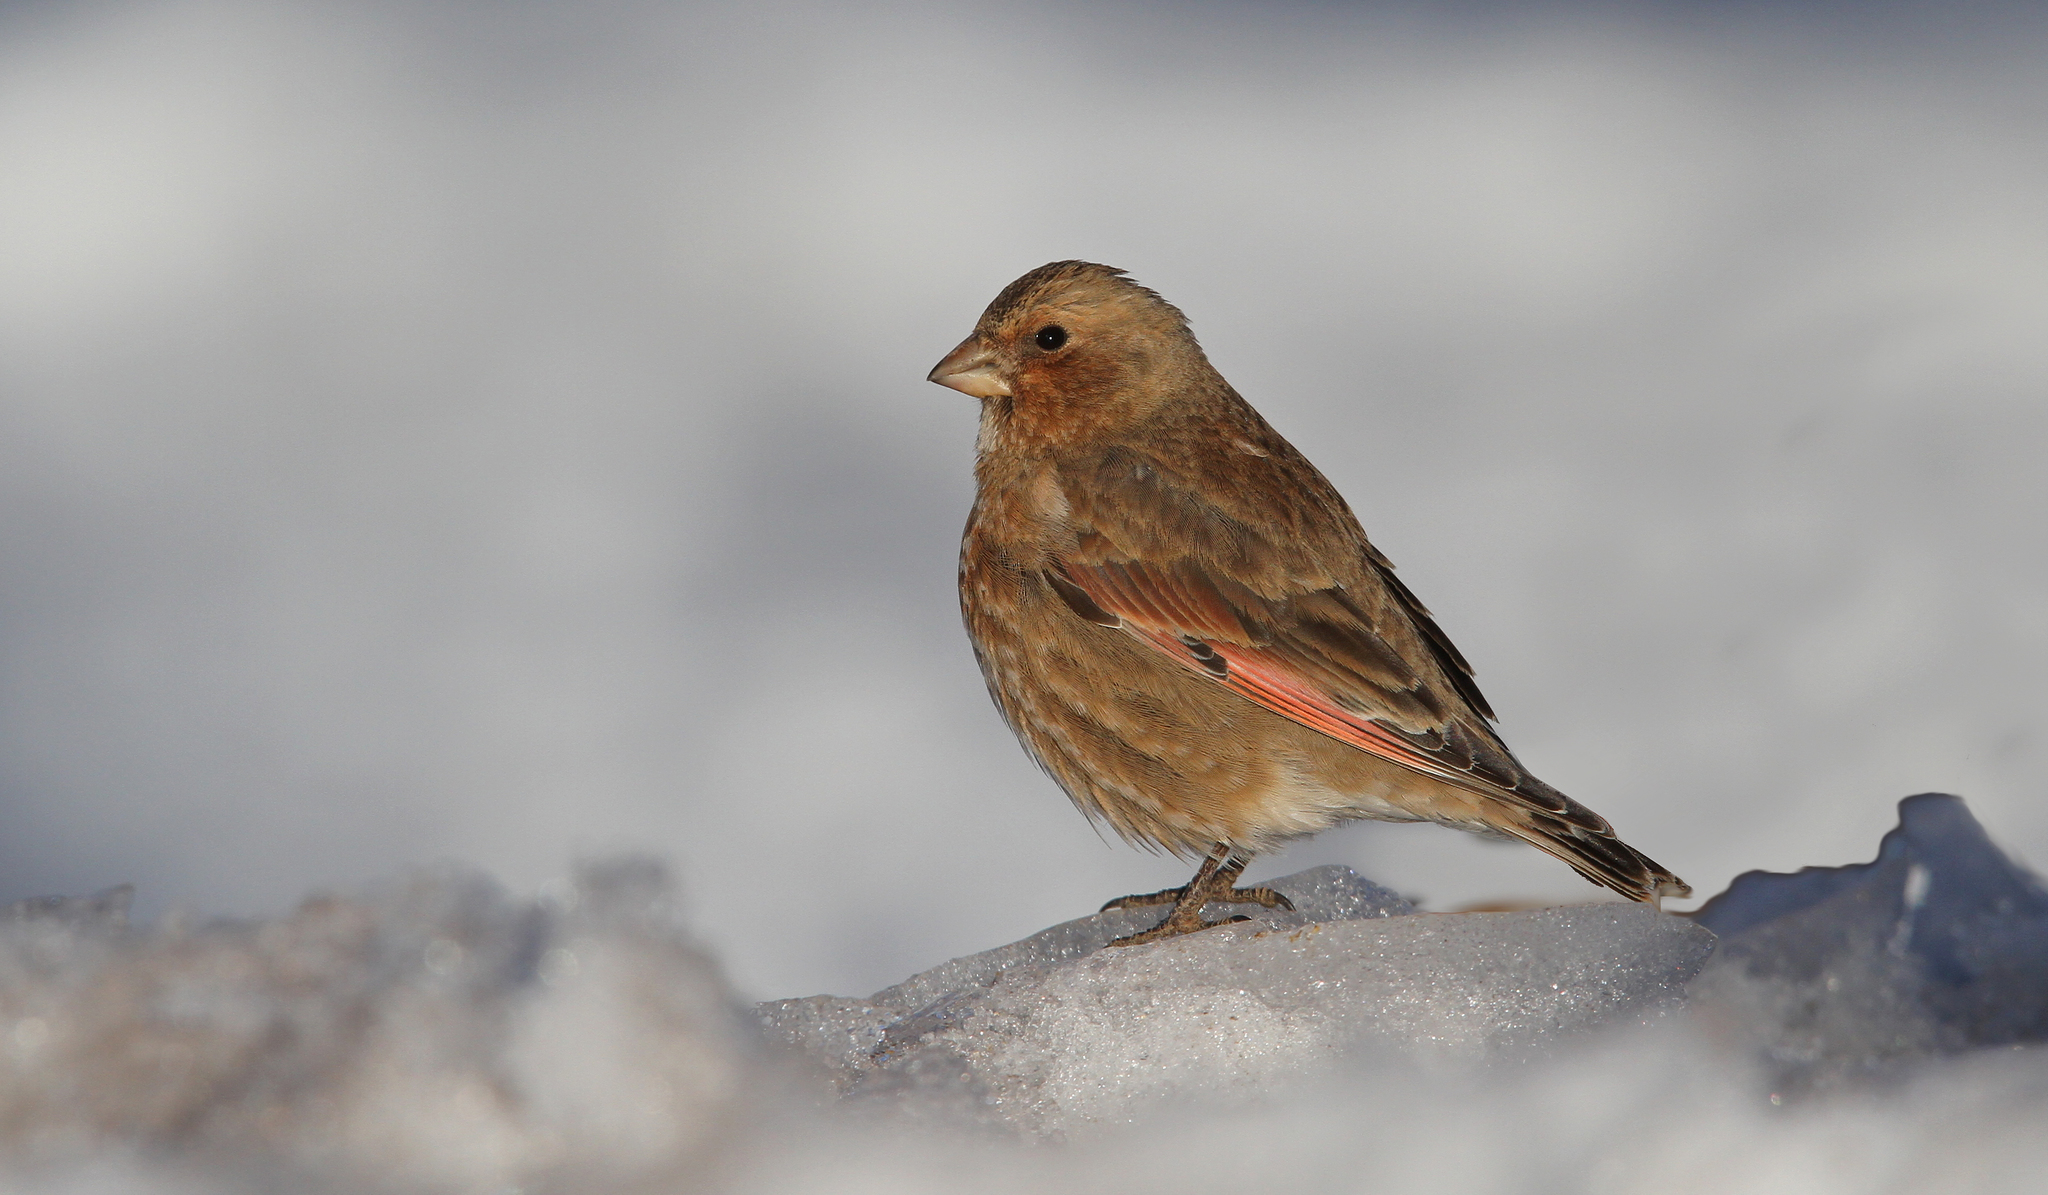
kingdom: Animalia
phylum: Chordata
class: Aves
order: Passeriformes
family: Fringillidae
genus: Rhodopechys
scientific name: Rhodopechys sanguineus
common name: Crimson-winged finch
